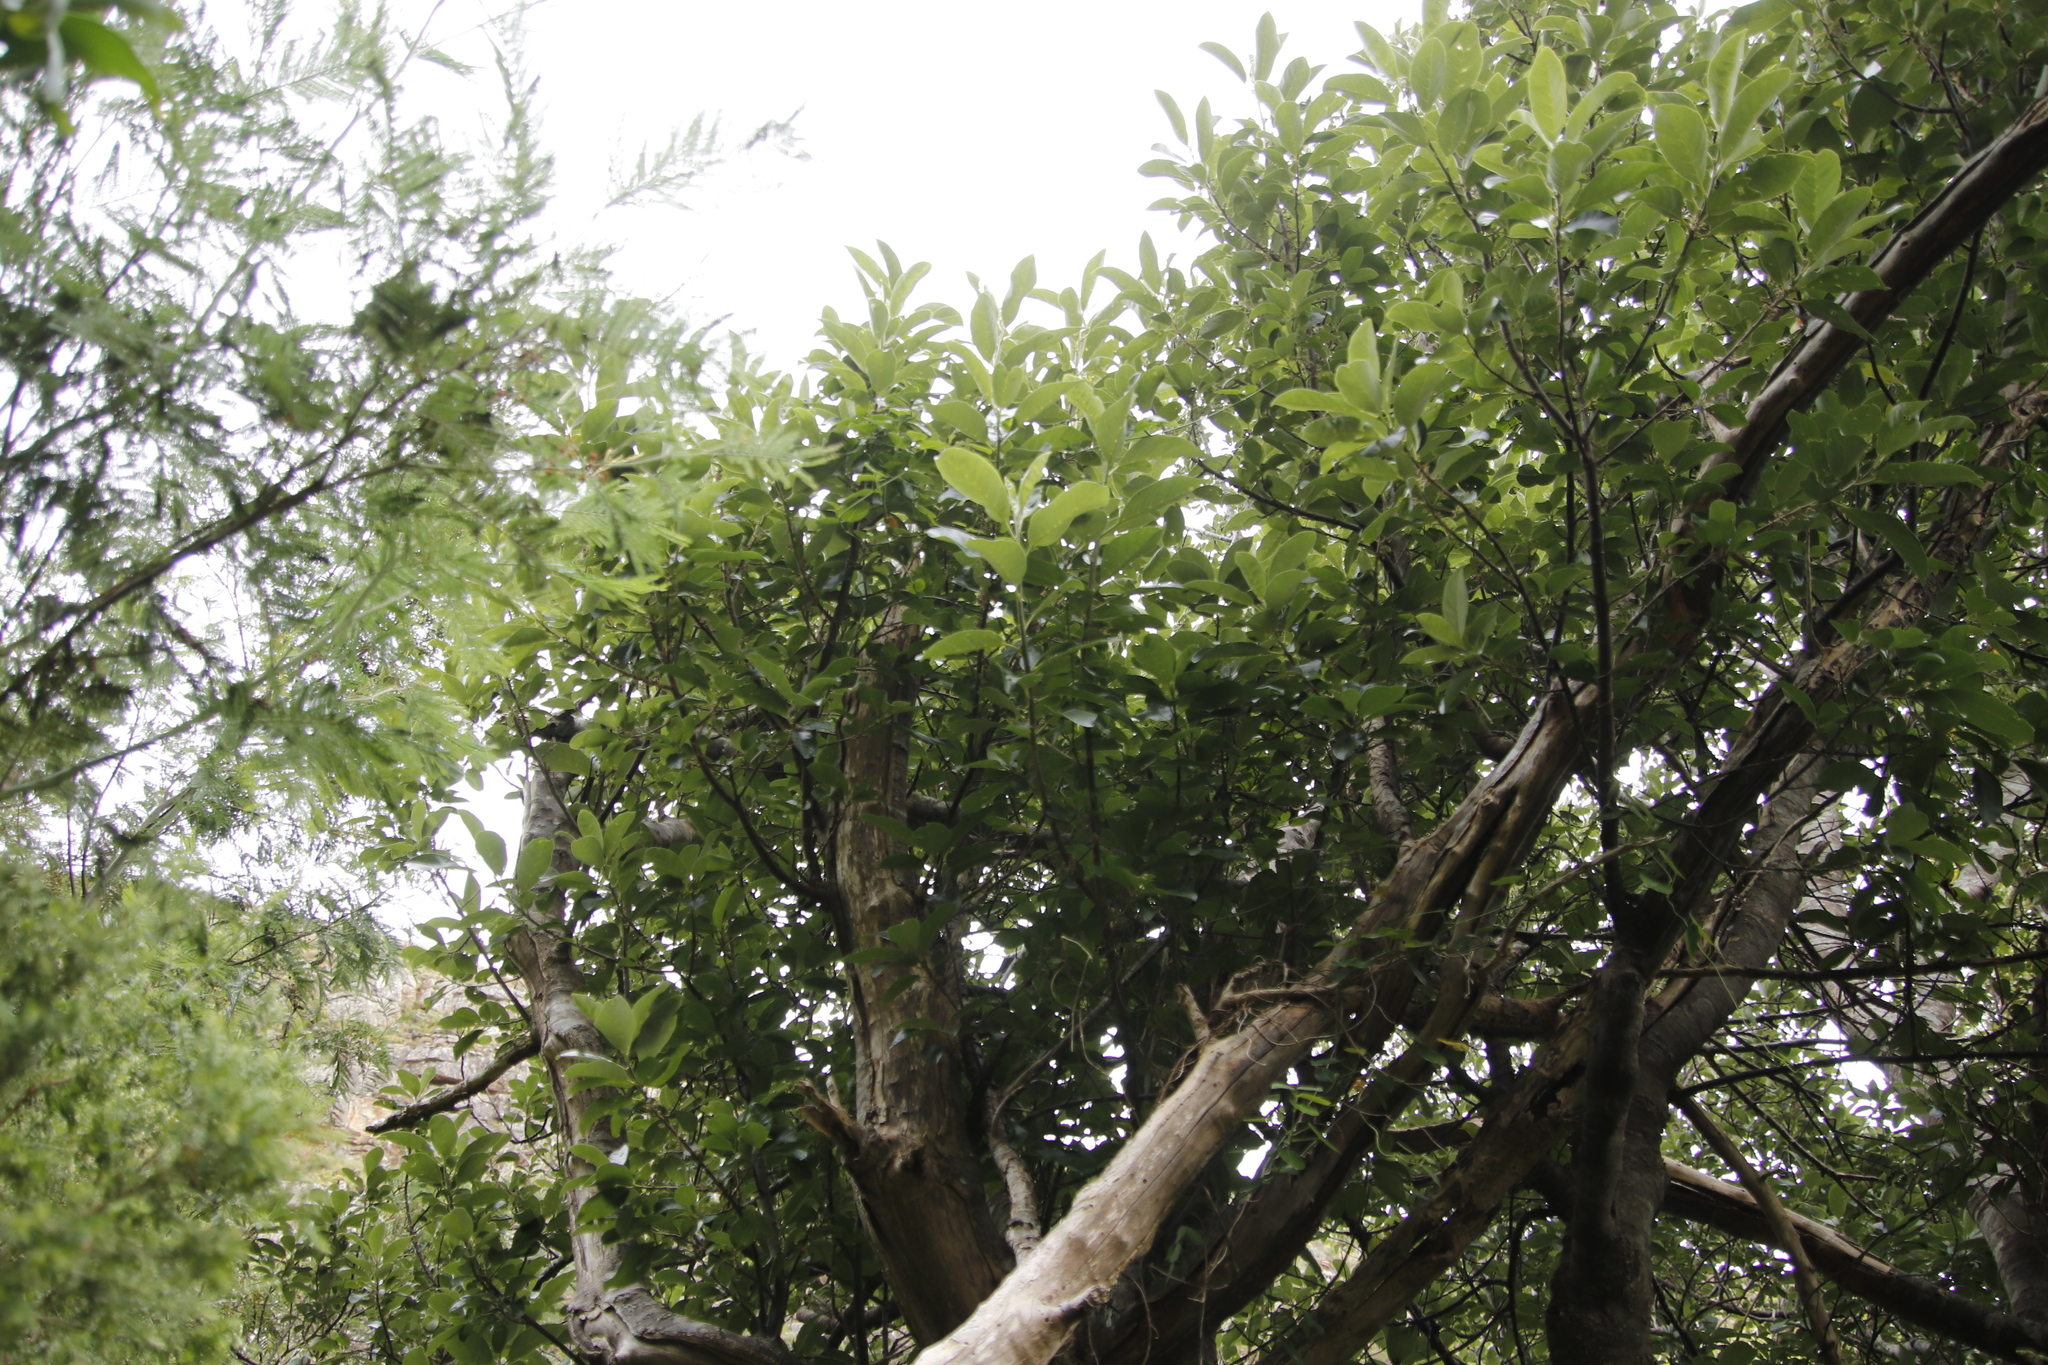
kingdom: Plantae
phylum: Tracheophyta
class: Magnoliopsida
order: Malpighiales
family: Achariaceae
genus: Kiggelaria
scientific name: Kiggelaria africana
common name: Wild peach
